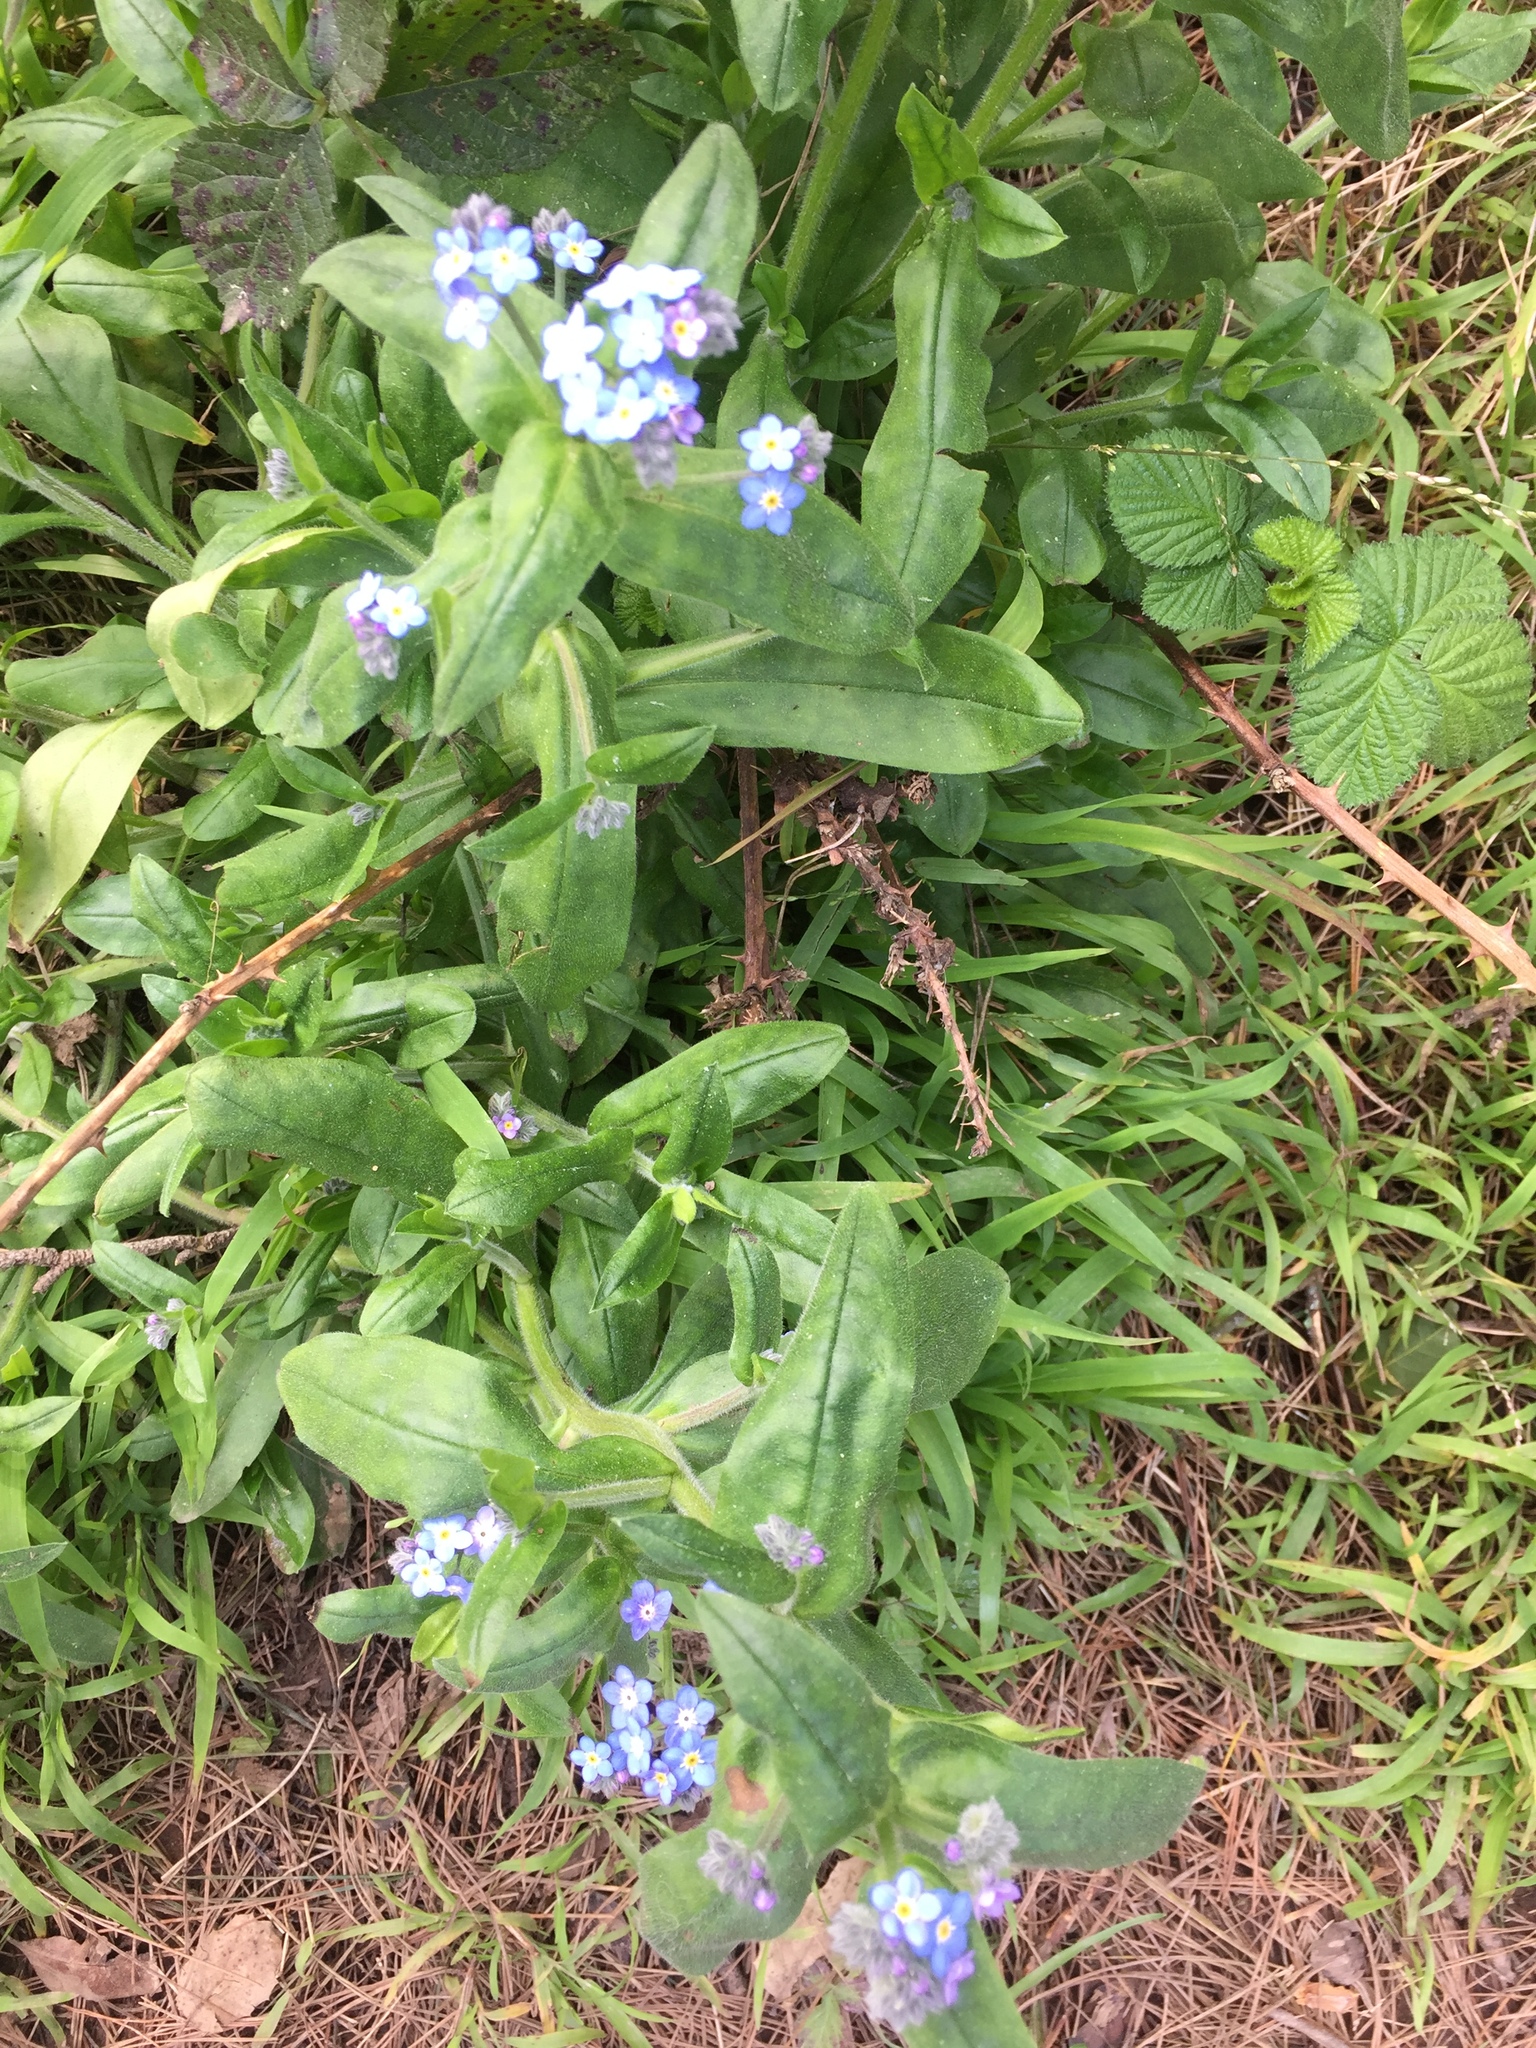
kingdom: Plantae
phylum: Tracheophyta
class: Magnoliopsida
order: Boraginales
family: Boraginaceae
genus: Myosotis
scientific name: Myosotis latifolia
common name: Broadleaf forget-me-not
